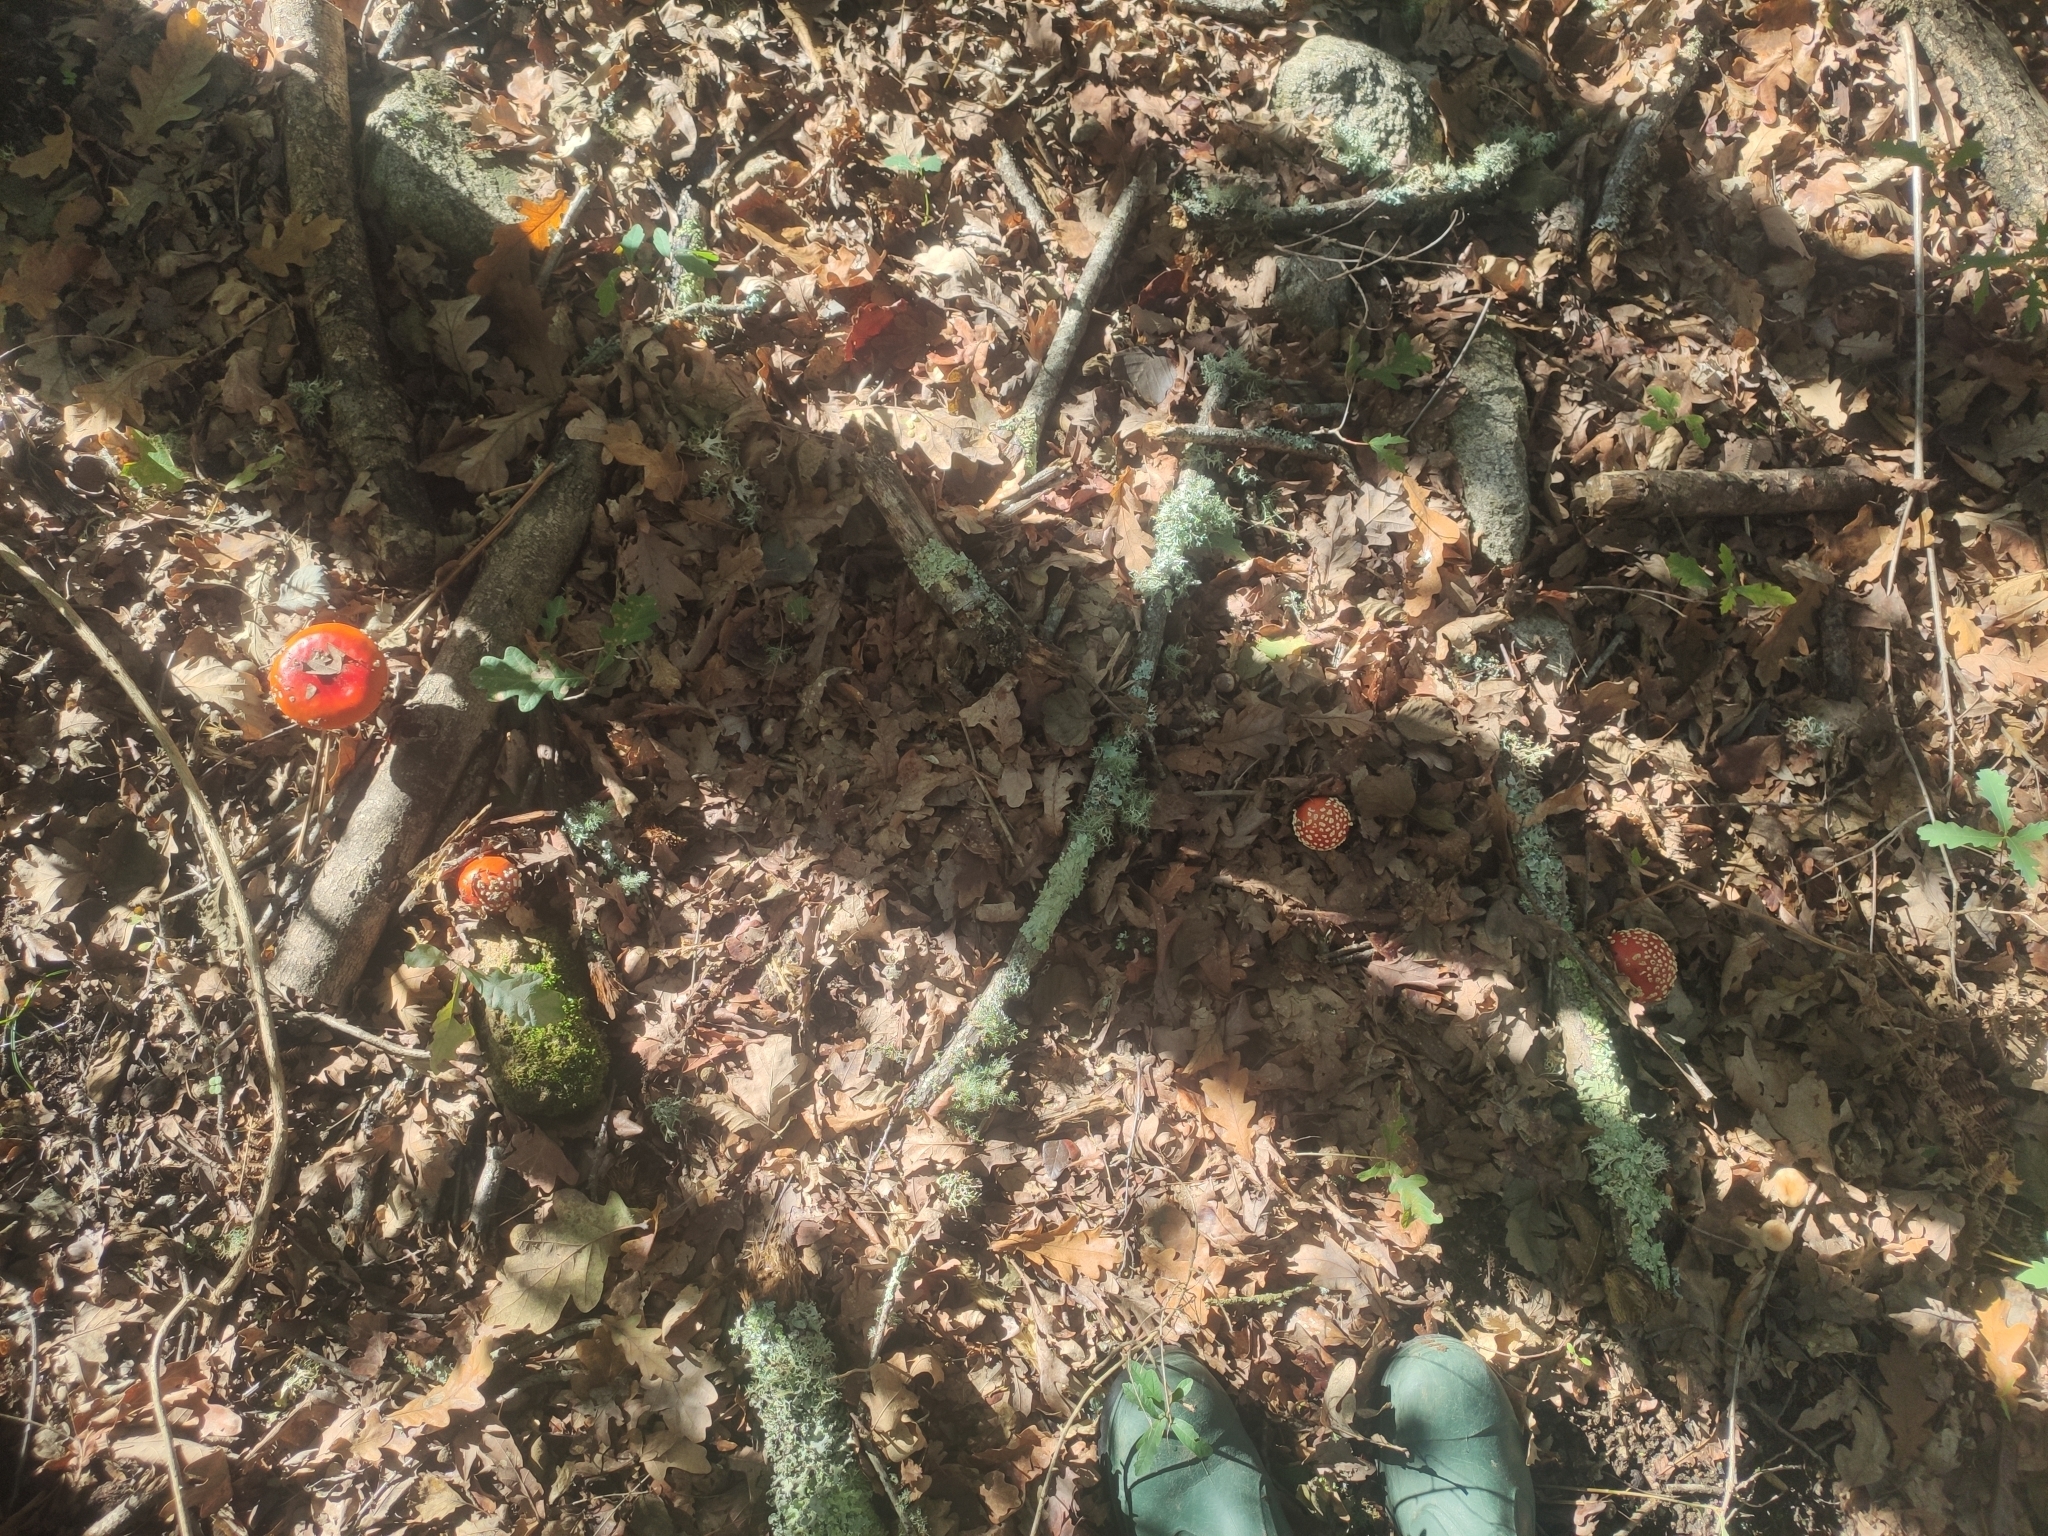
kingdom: Fungi
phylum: Basidiomycota
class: Agaricomycetes
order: Agaricales
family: Amanitaceae
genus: Amanita
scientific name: Amanita muscaria
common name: Fly agaric
